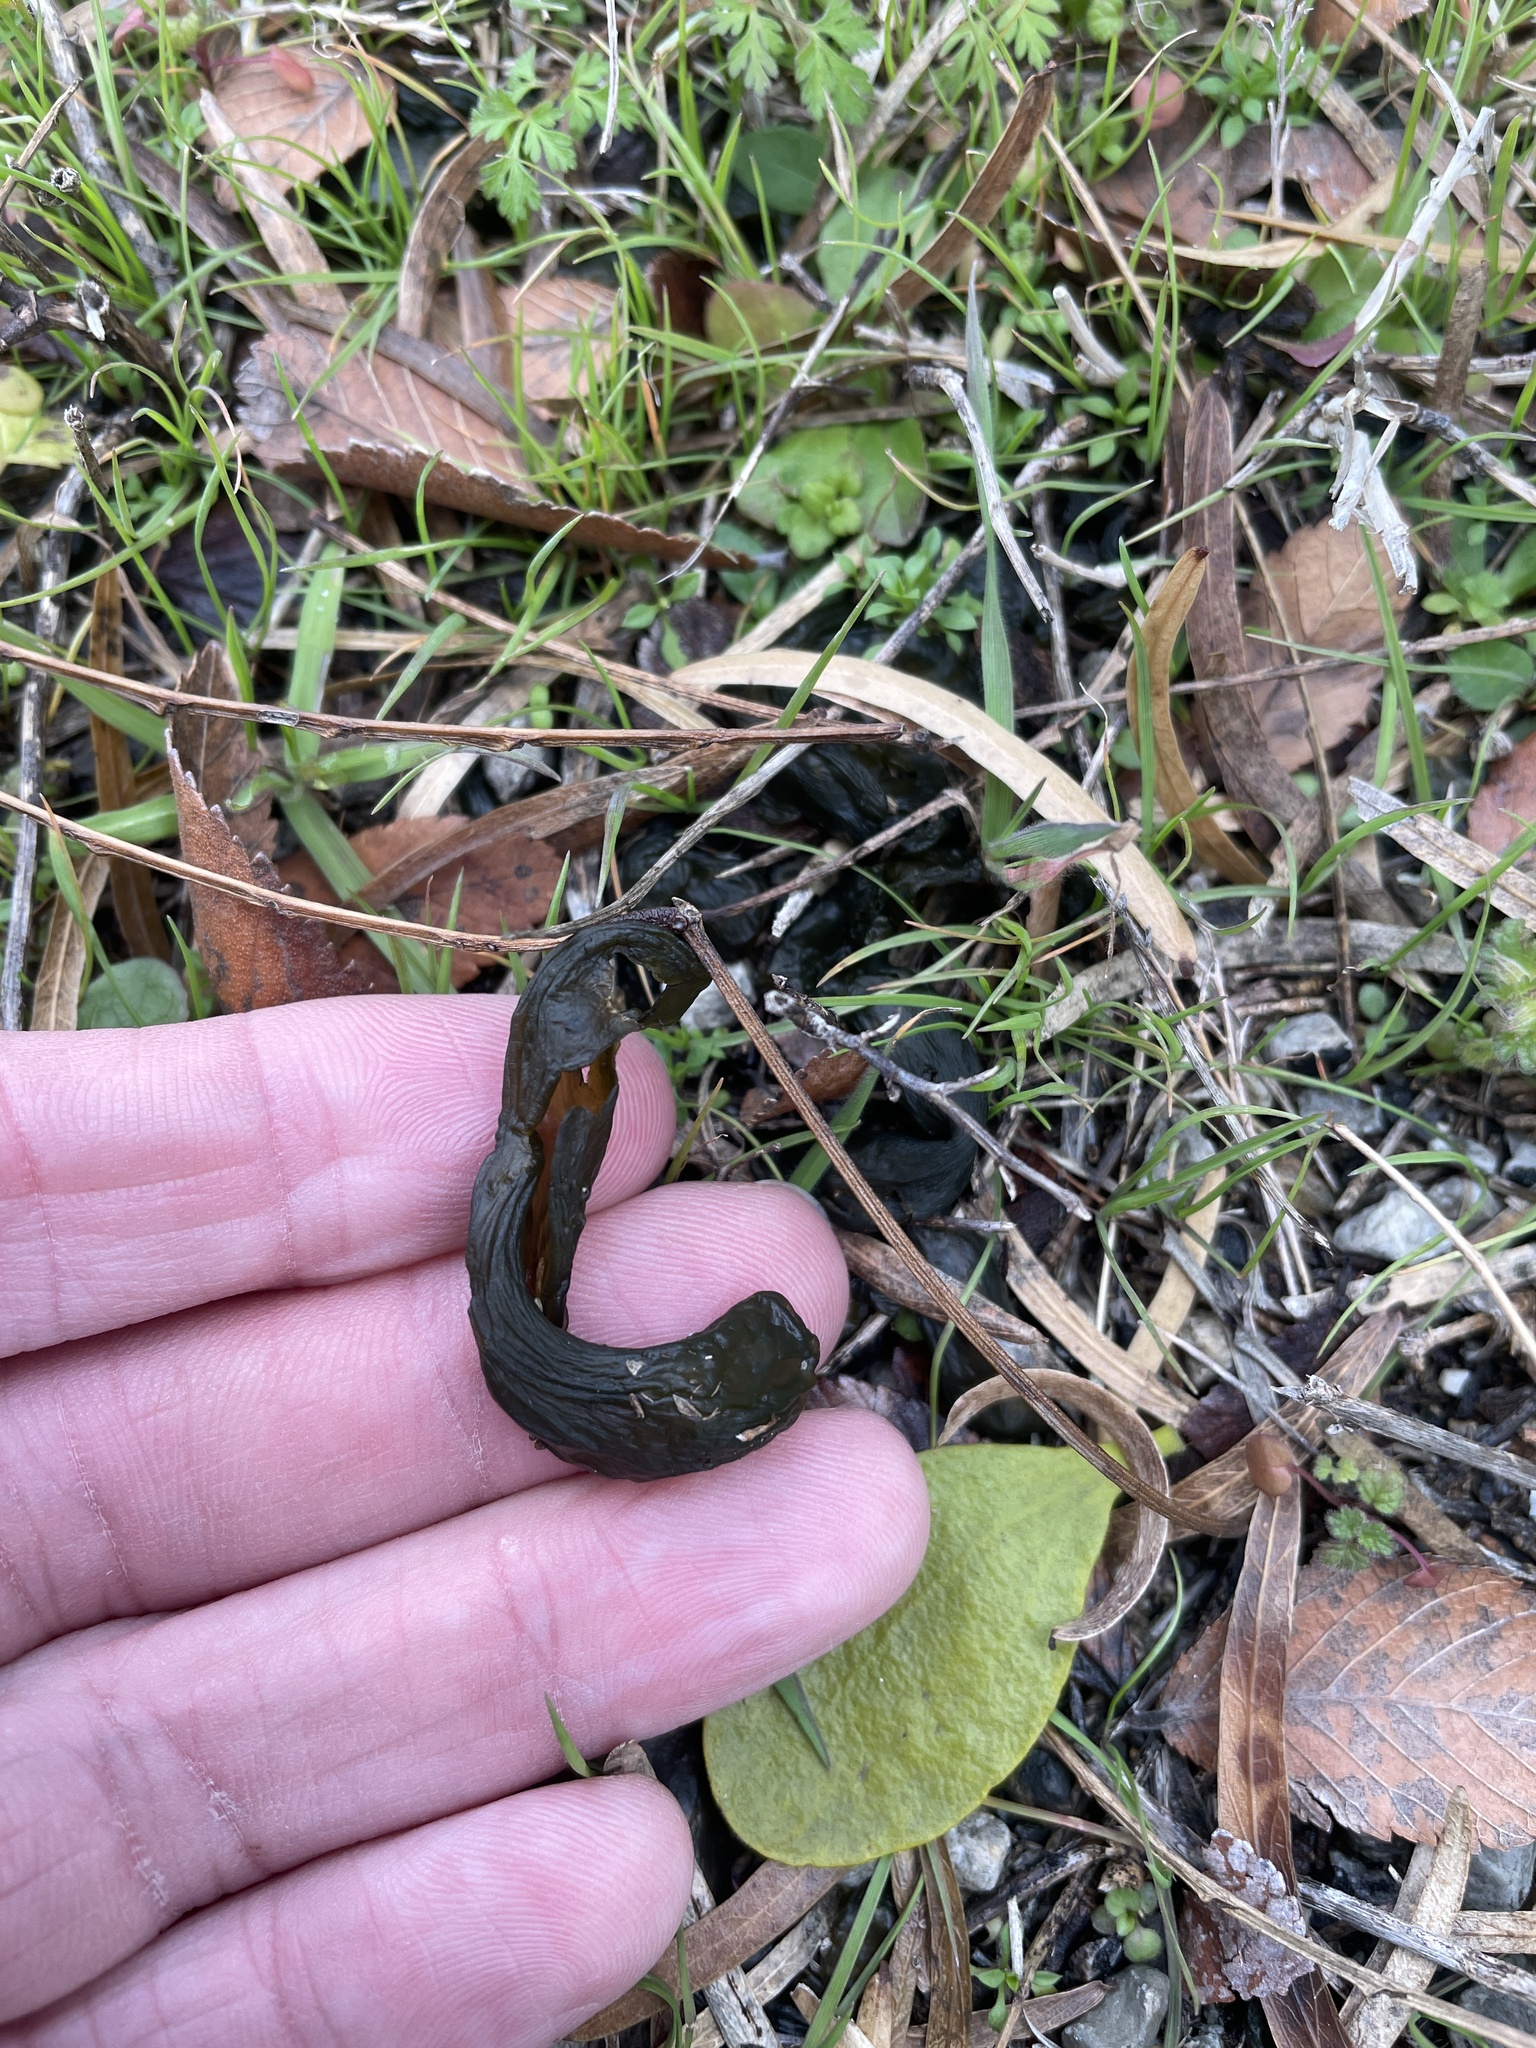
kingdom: Bacteria
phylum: Cyanobacteria
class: Cyanobacteriia
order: Cyanobacteriales
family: Nostocaceae
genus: Nostoc
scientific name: Nostoc commune
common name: Star jelly
